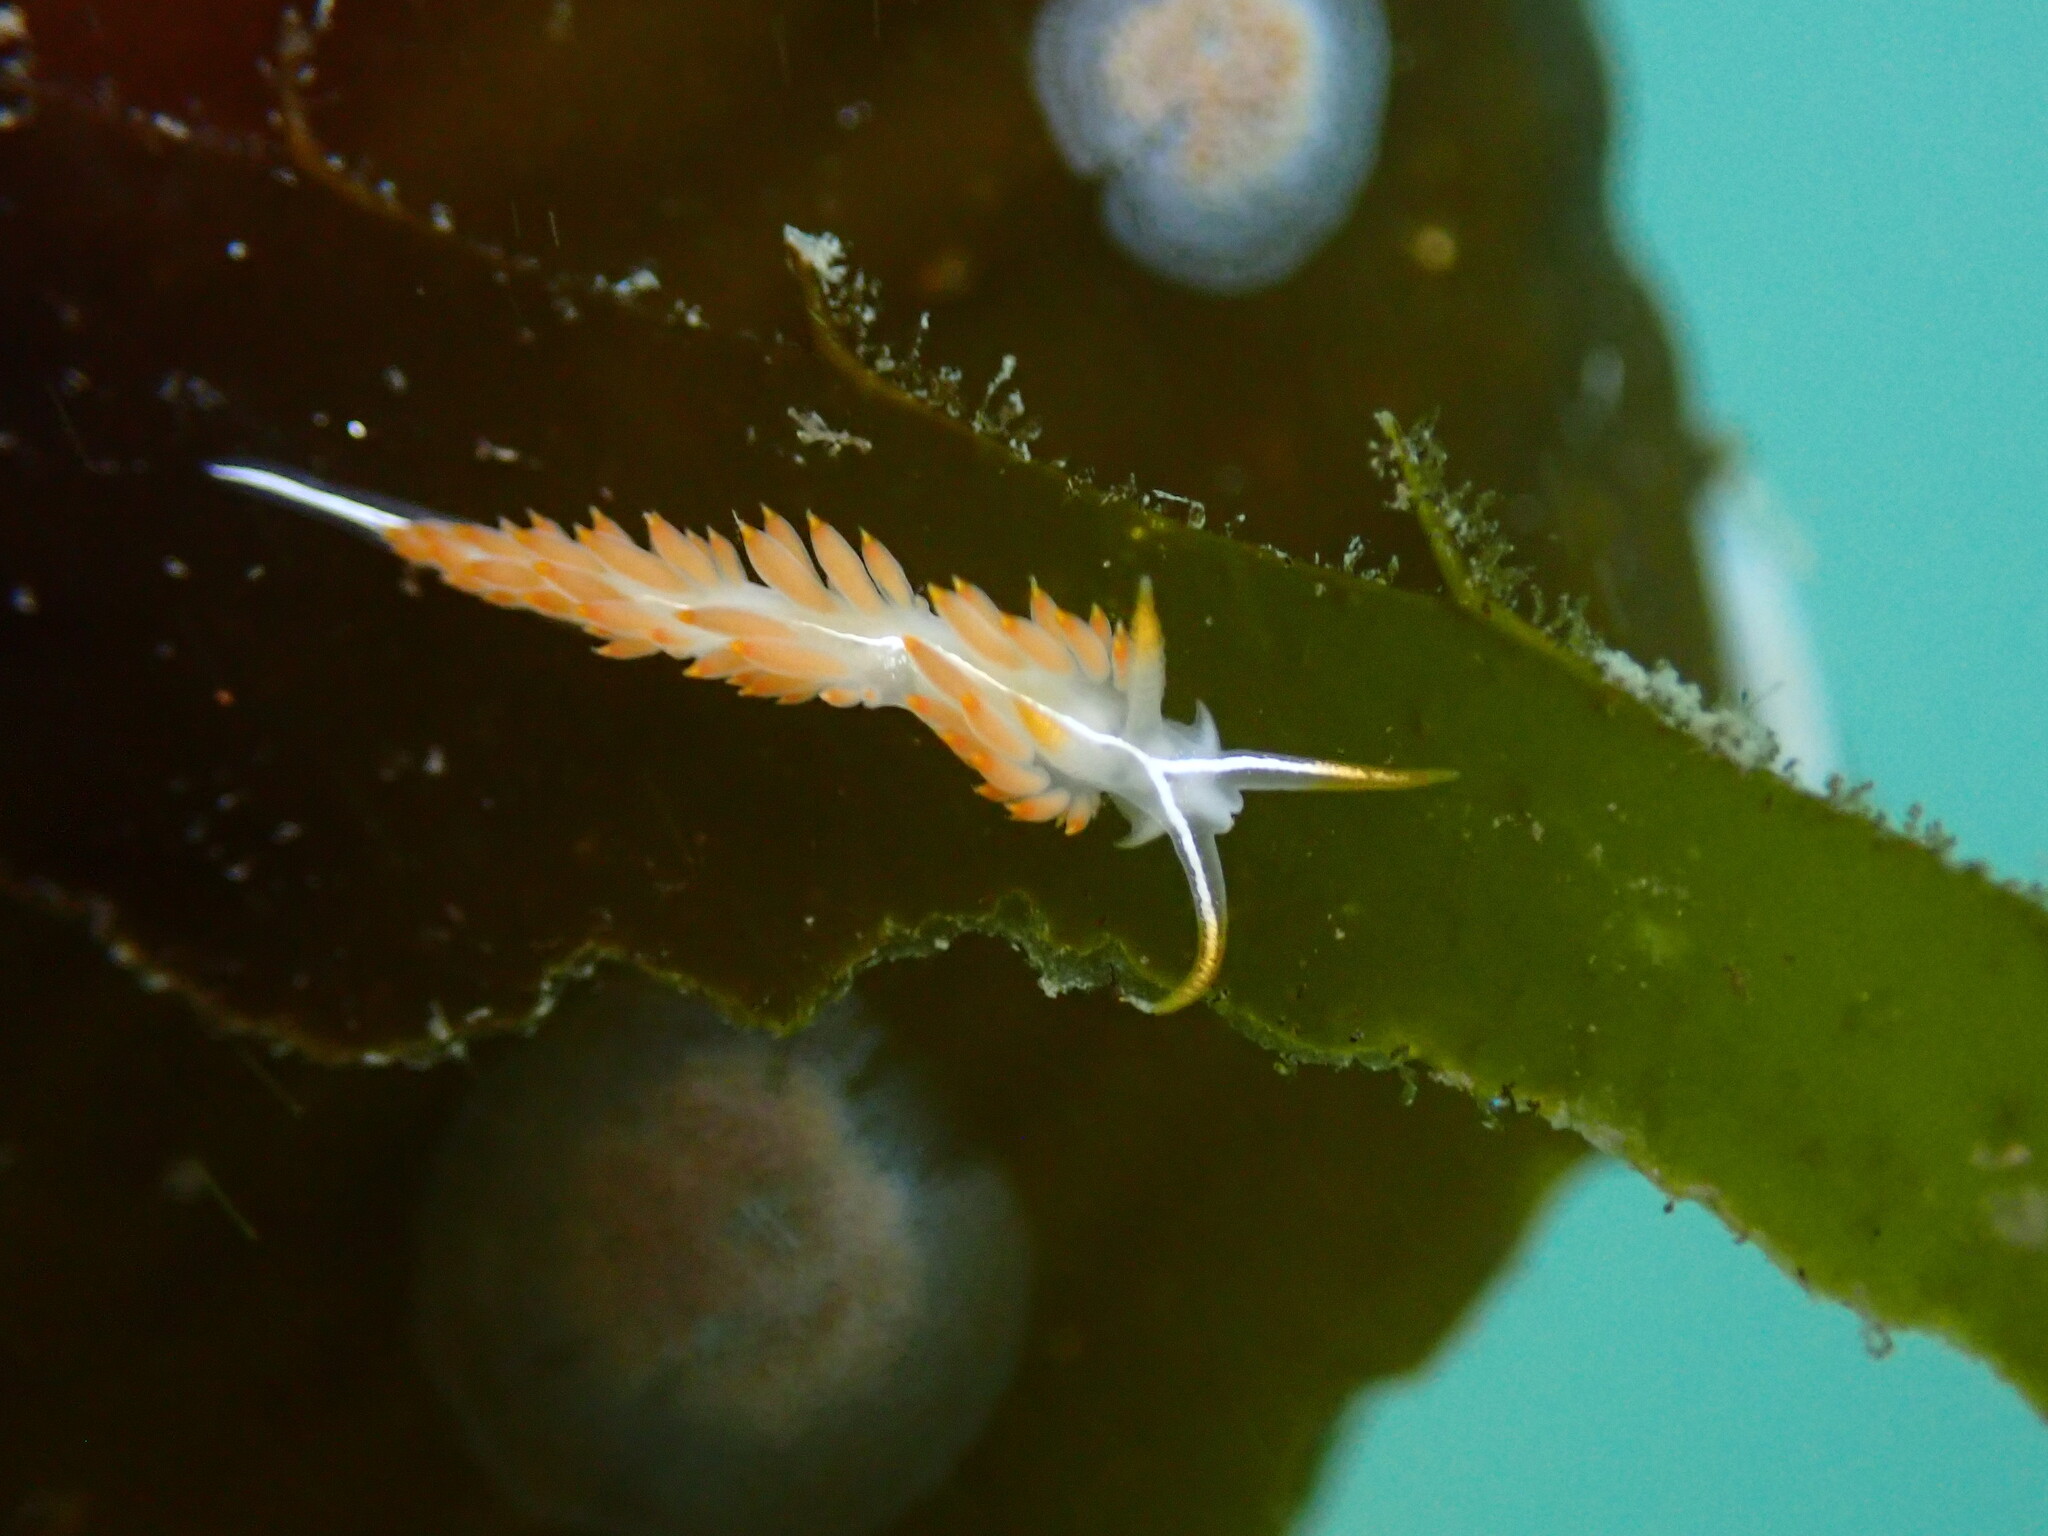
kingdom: Animalia
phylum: Mollusca
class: Gastropoda
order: Nudibranchia
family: Coryphellidae
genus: Coryphella
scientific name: Coryphella trilineata
